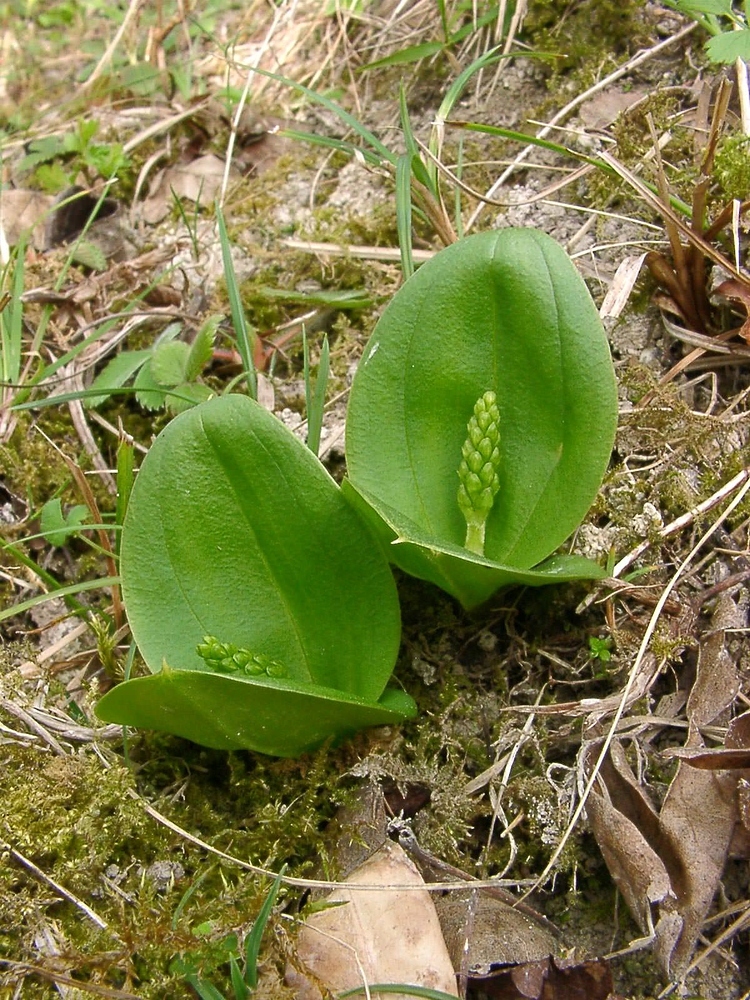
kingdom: Plantae
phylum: Tracheophyta
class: Liliopsida
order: Asparagales
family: Orchidaceae
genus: Neottia
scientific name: Neottia ovata
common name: Common twayblade
